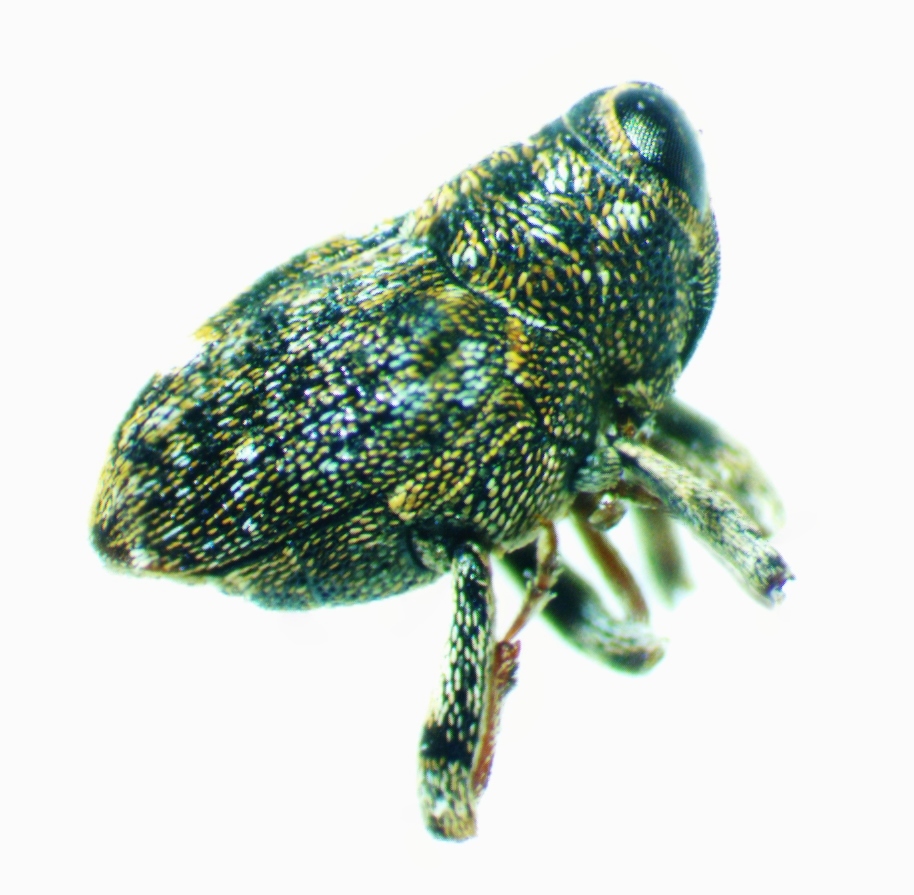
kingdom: Animalia
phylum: Arthropoda
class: Insecta
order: Coleoptera
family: Curculionidae
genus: Lechriops
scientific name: Lechriops oculatus
